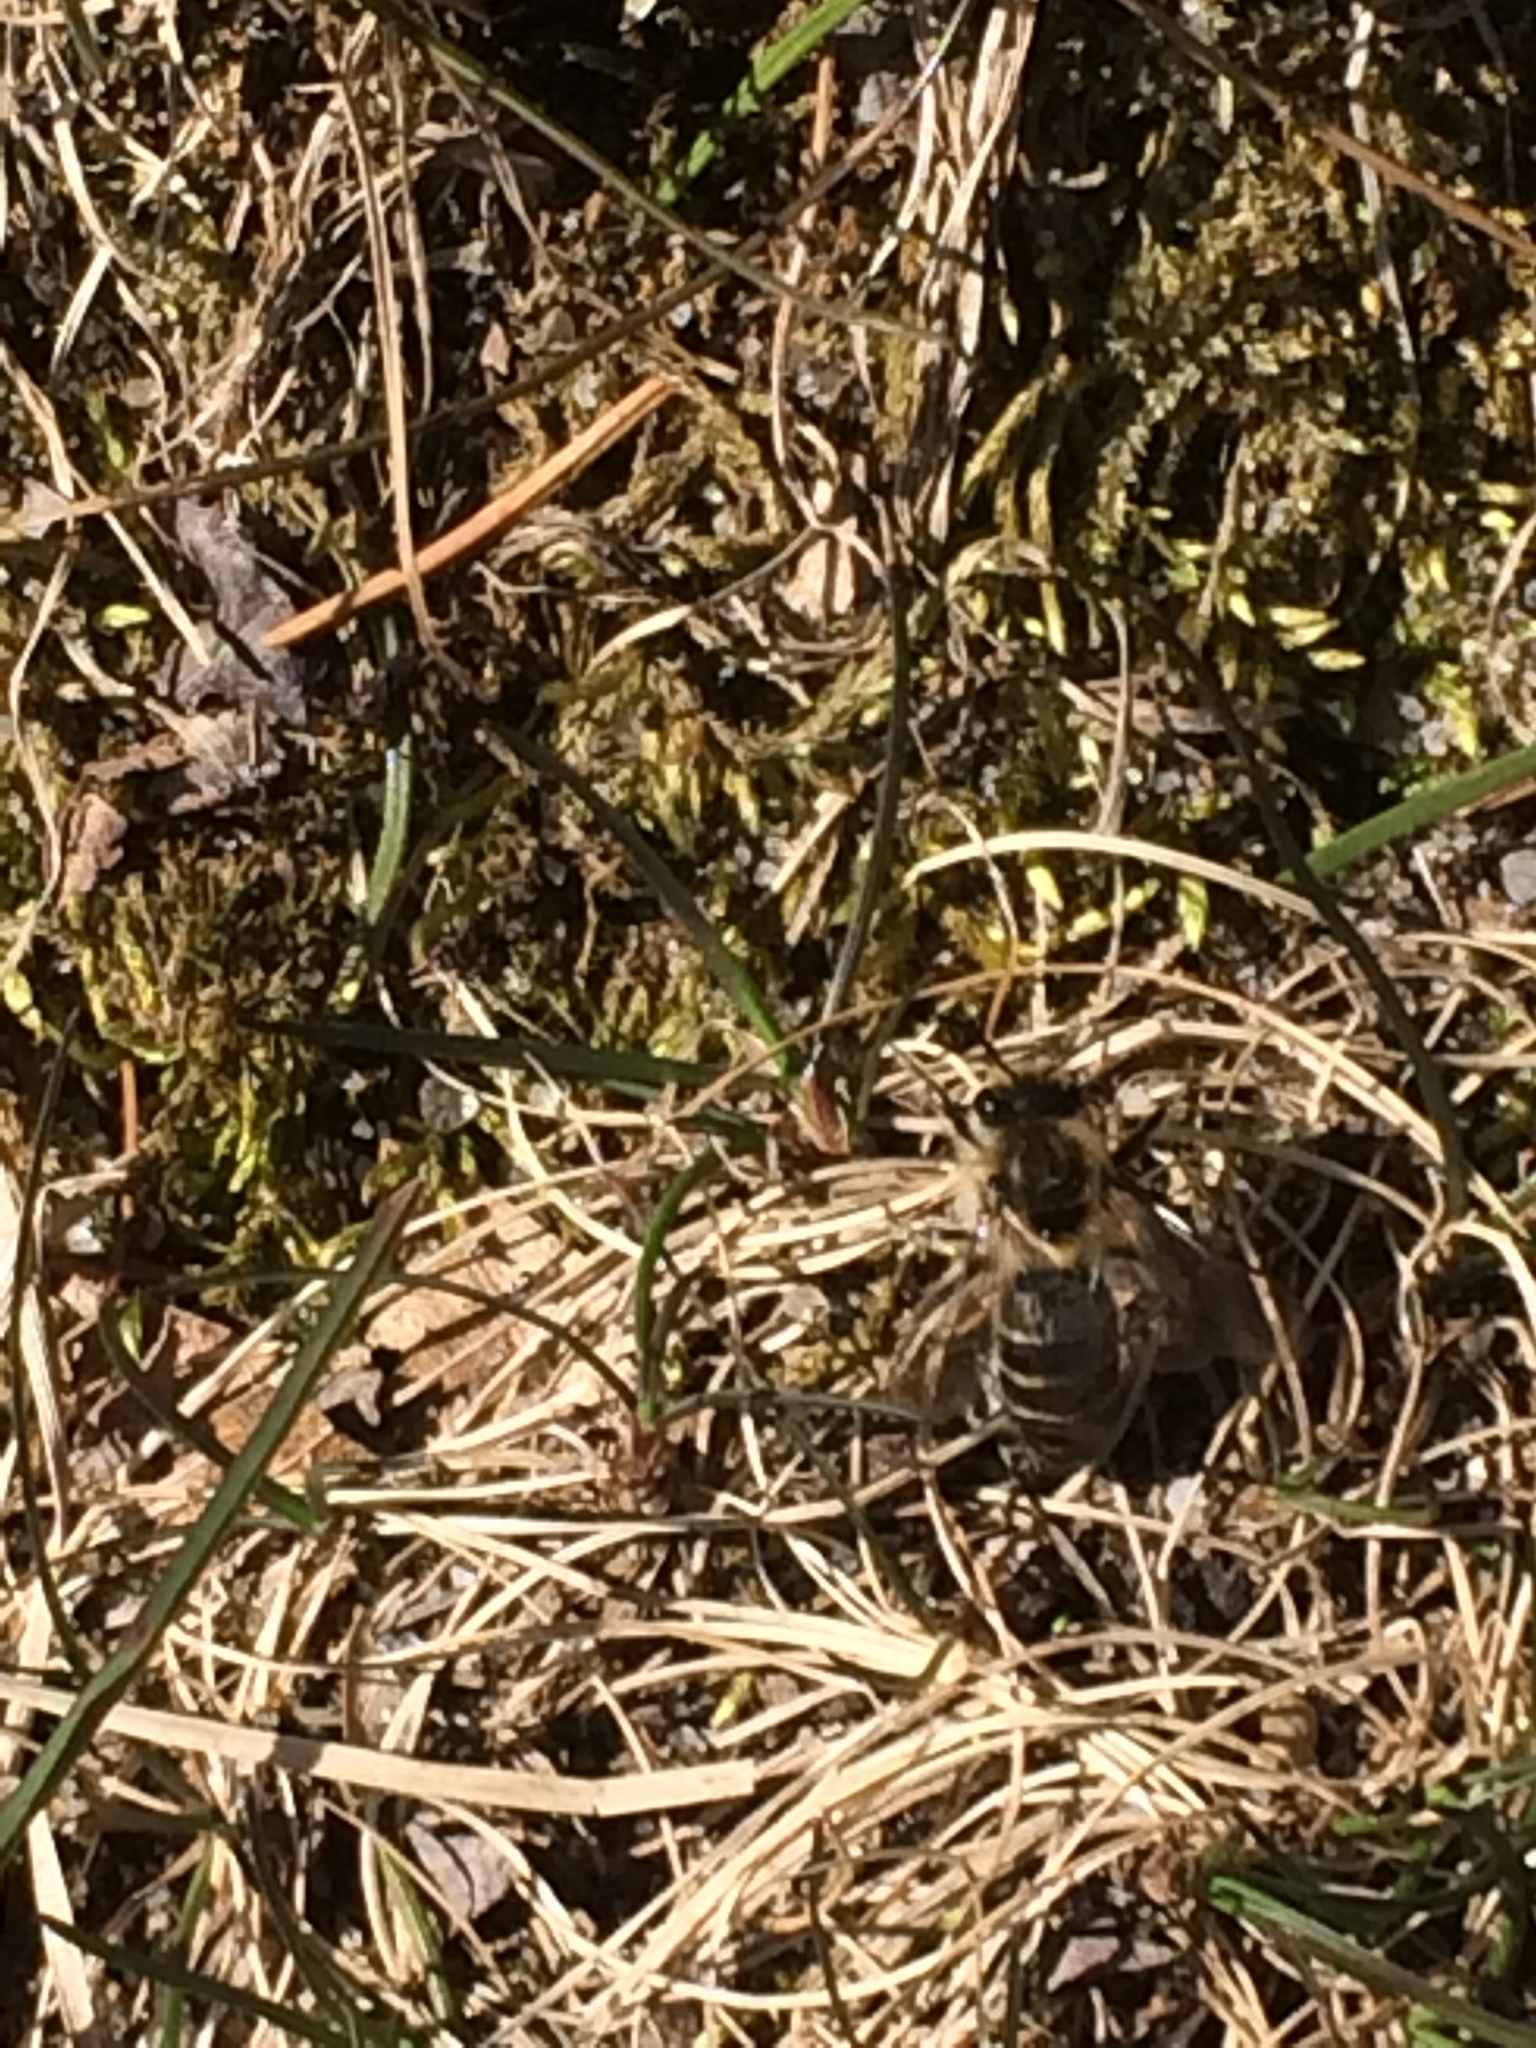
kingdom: Animalia
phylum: Arthropoda
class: Insecta
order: Hymenoptera
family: Colletidae
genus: Colletes
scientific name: Colletes inaequalis
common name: Unequal cellophane bee
